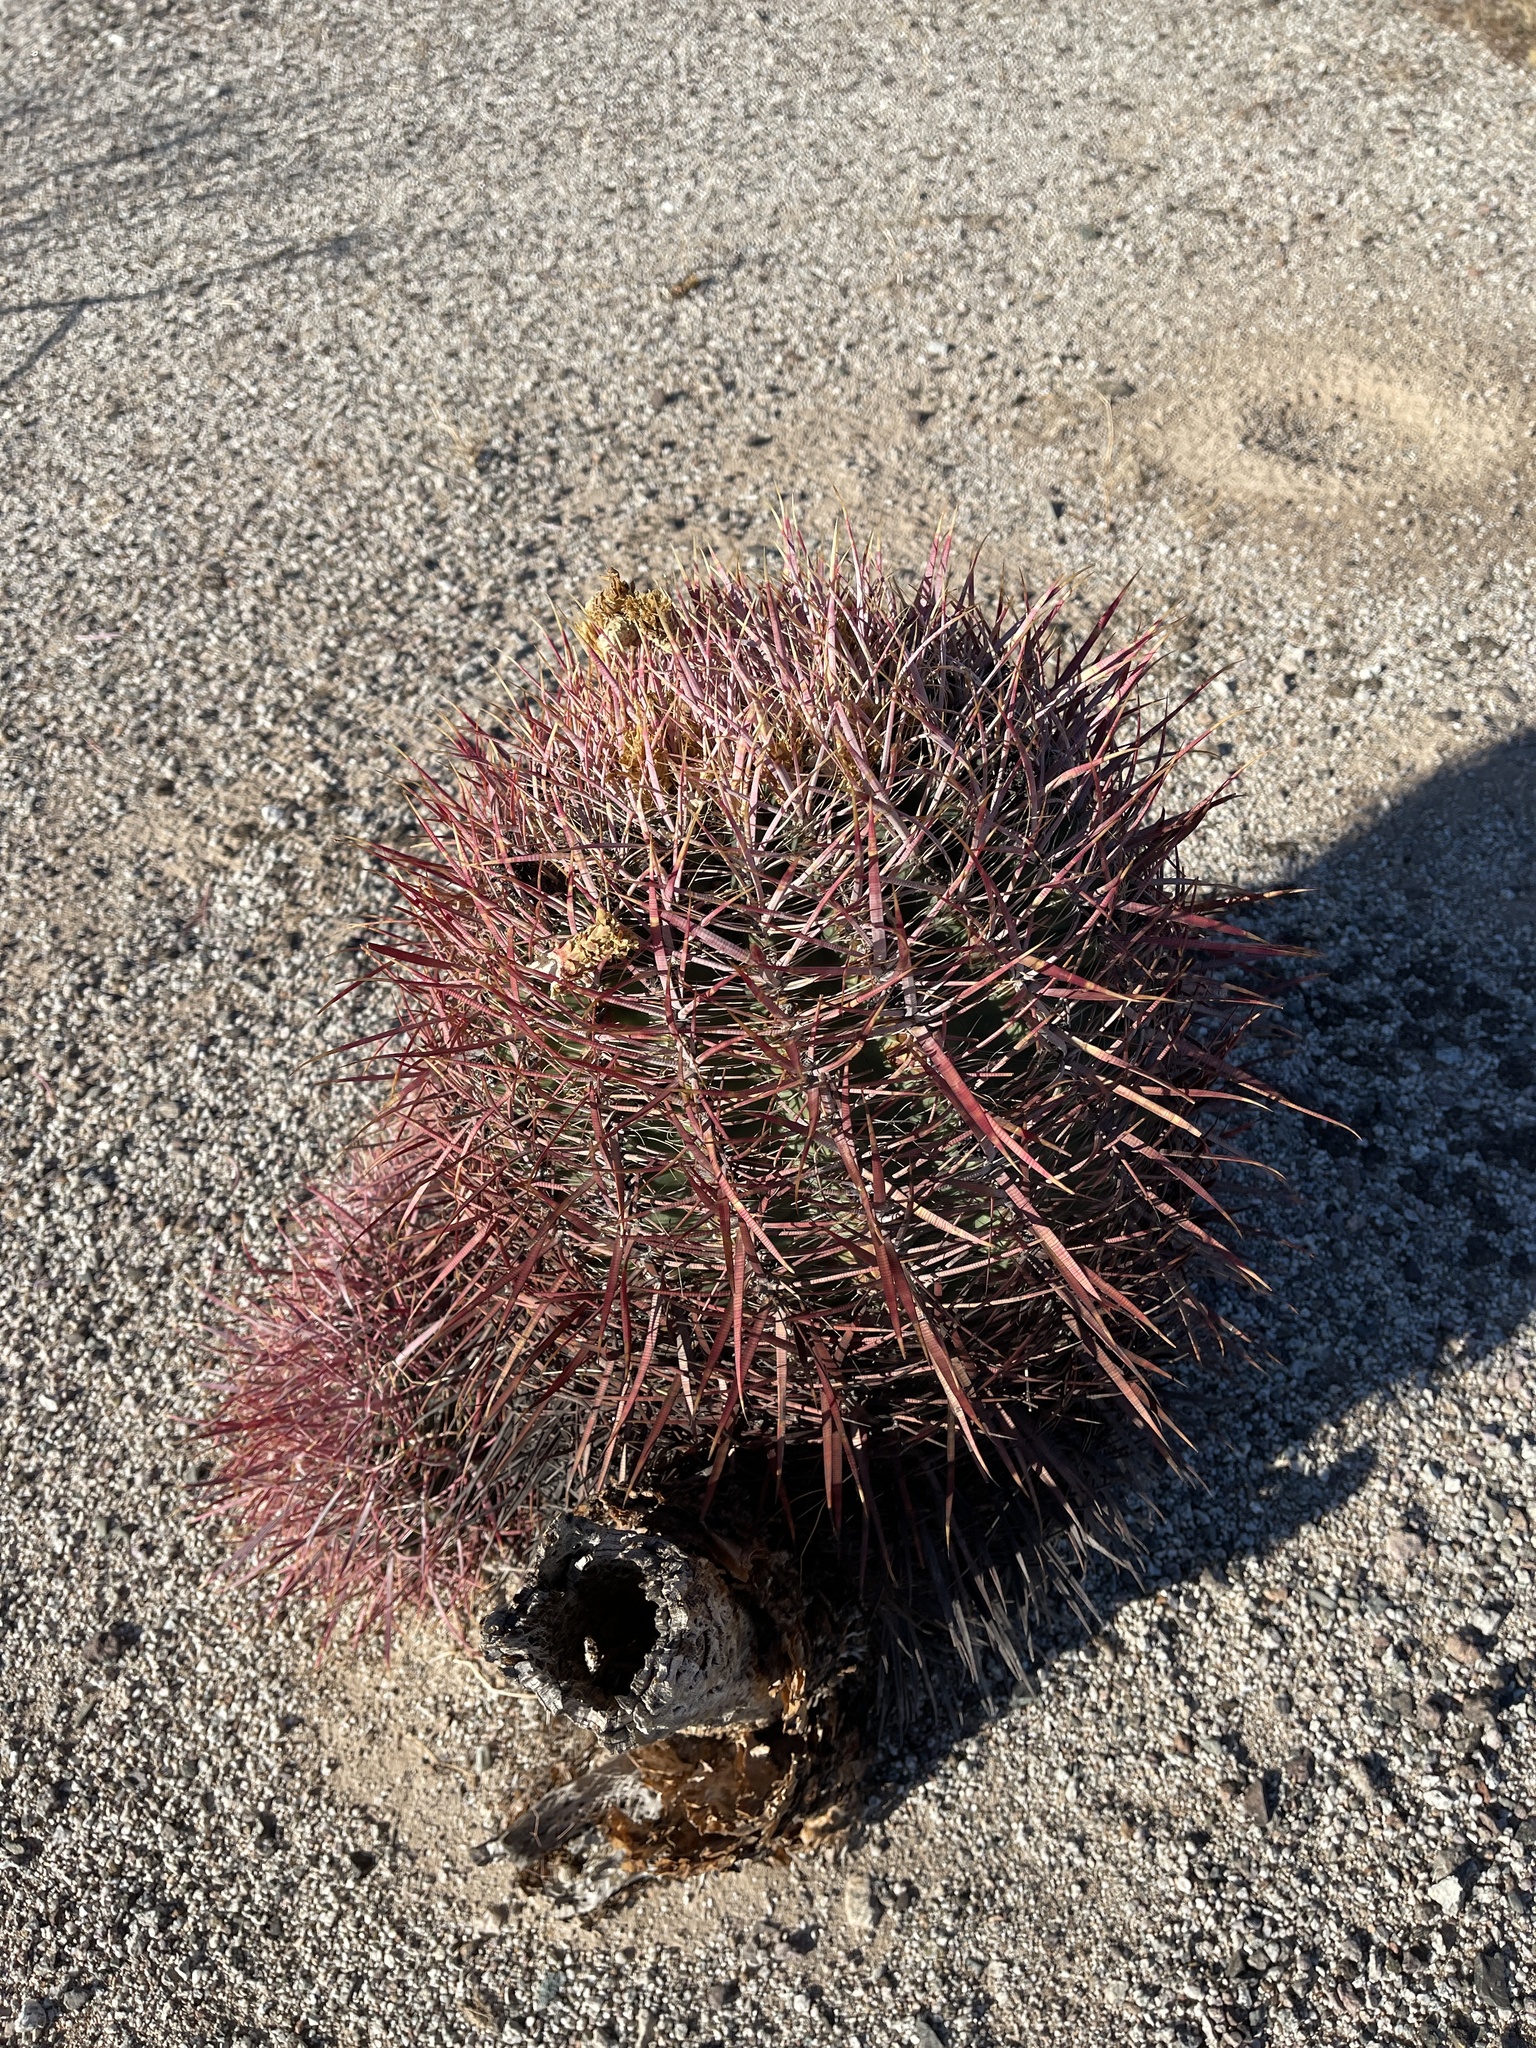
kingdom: Plantae
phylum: Tracheophyta
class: Magnoliopsida
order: Caryophyllales
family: Cactaceae
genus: Ferocactus
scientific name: Ferocactus cylindraceus
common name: California barrel cactus
